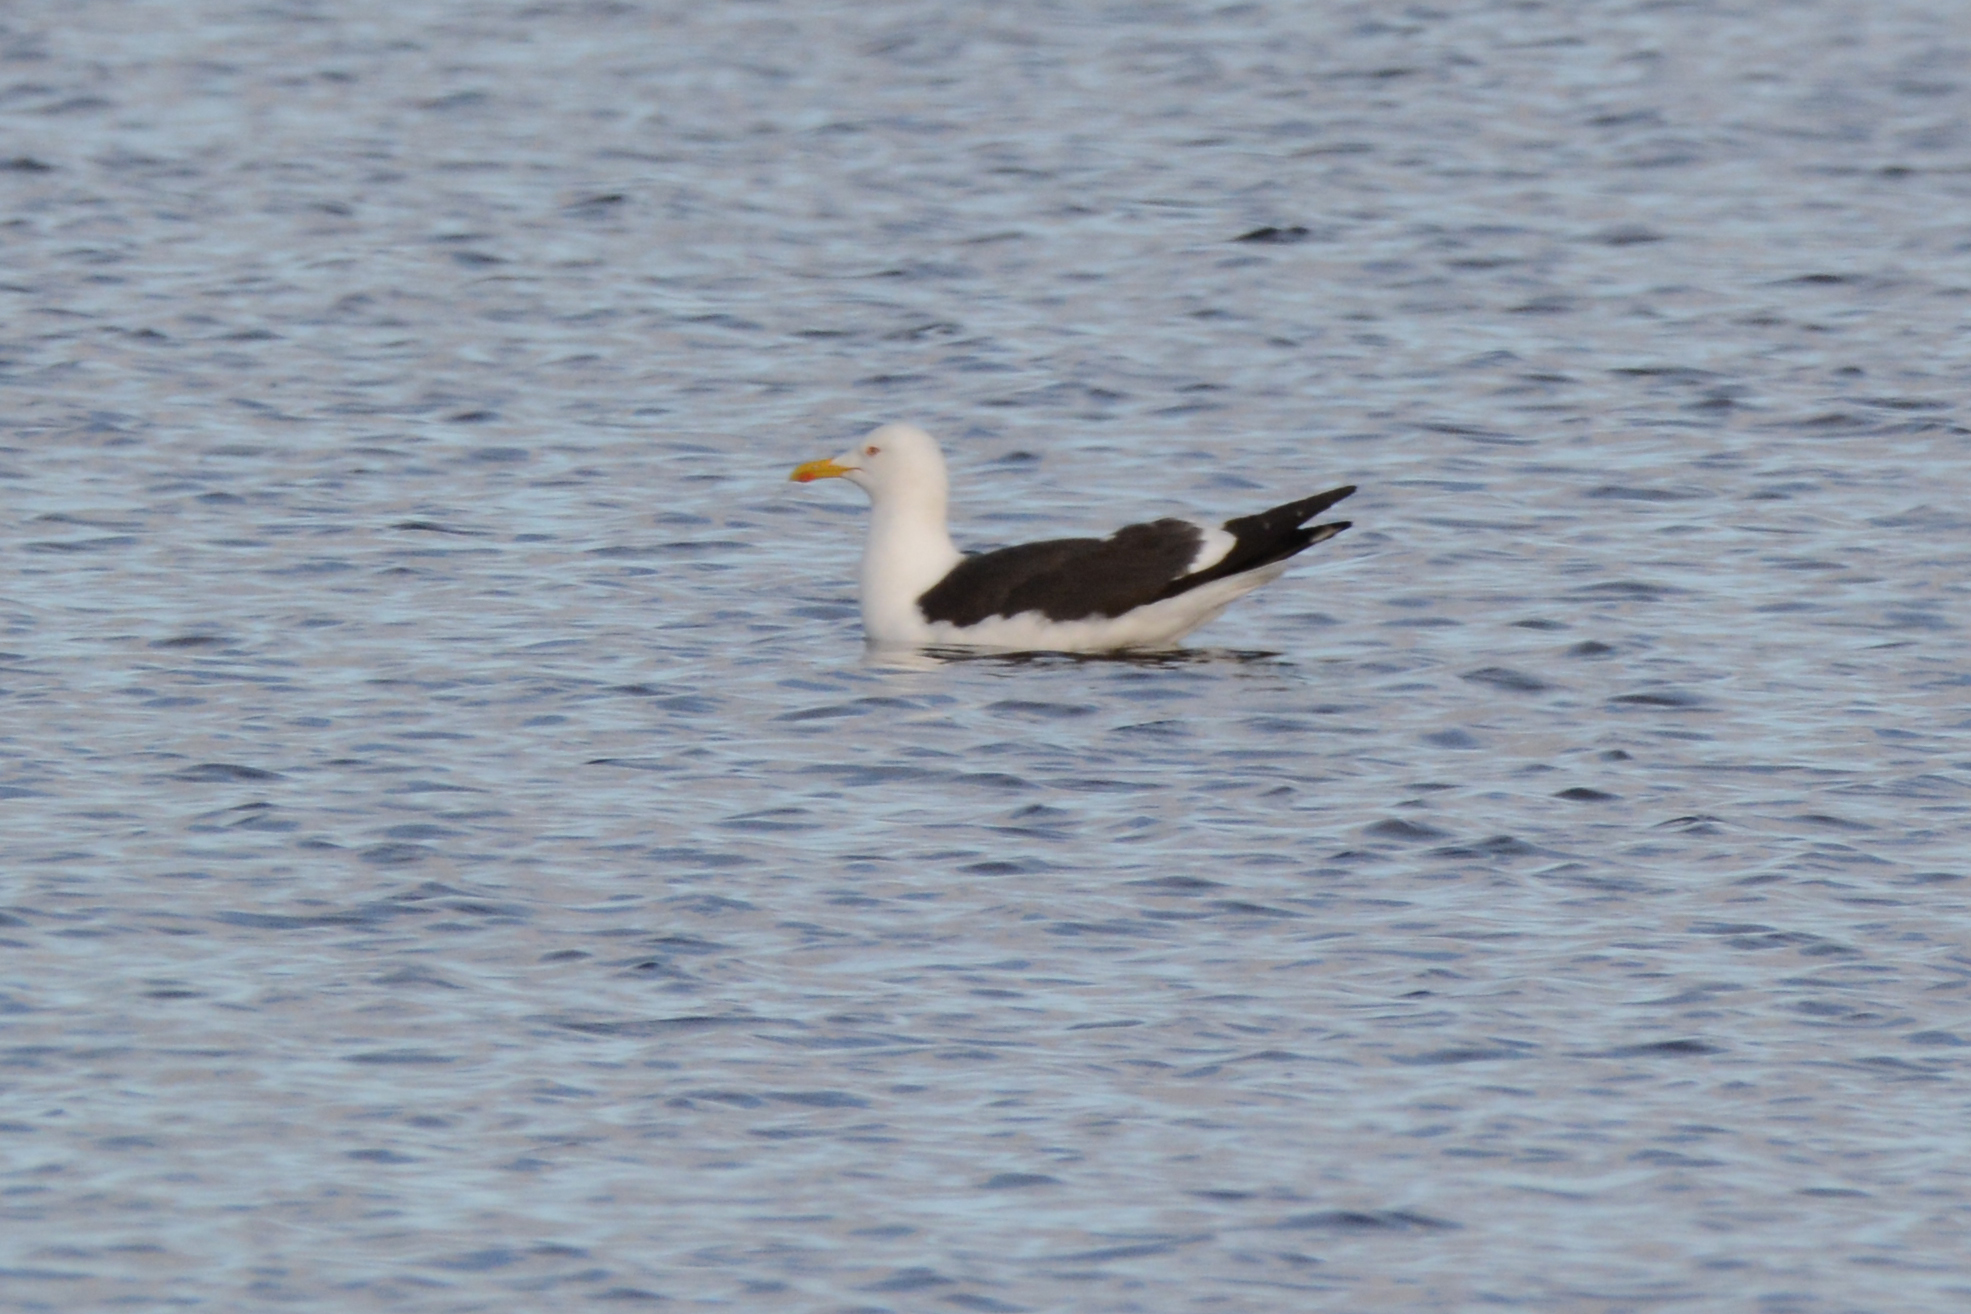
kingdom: Animalia
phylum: Chordata
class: Aves
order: Charadriiformes
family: Laridae
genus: Larus
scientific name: Larus fuscus
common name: Lesser black-backed gull
